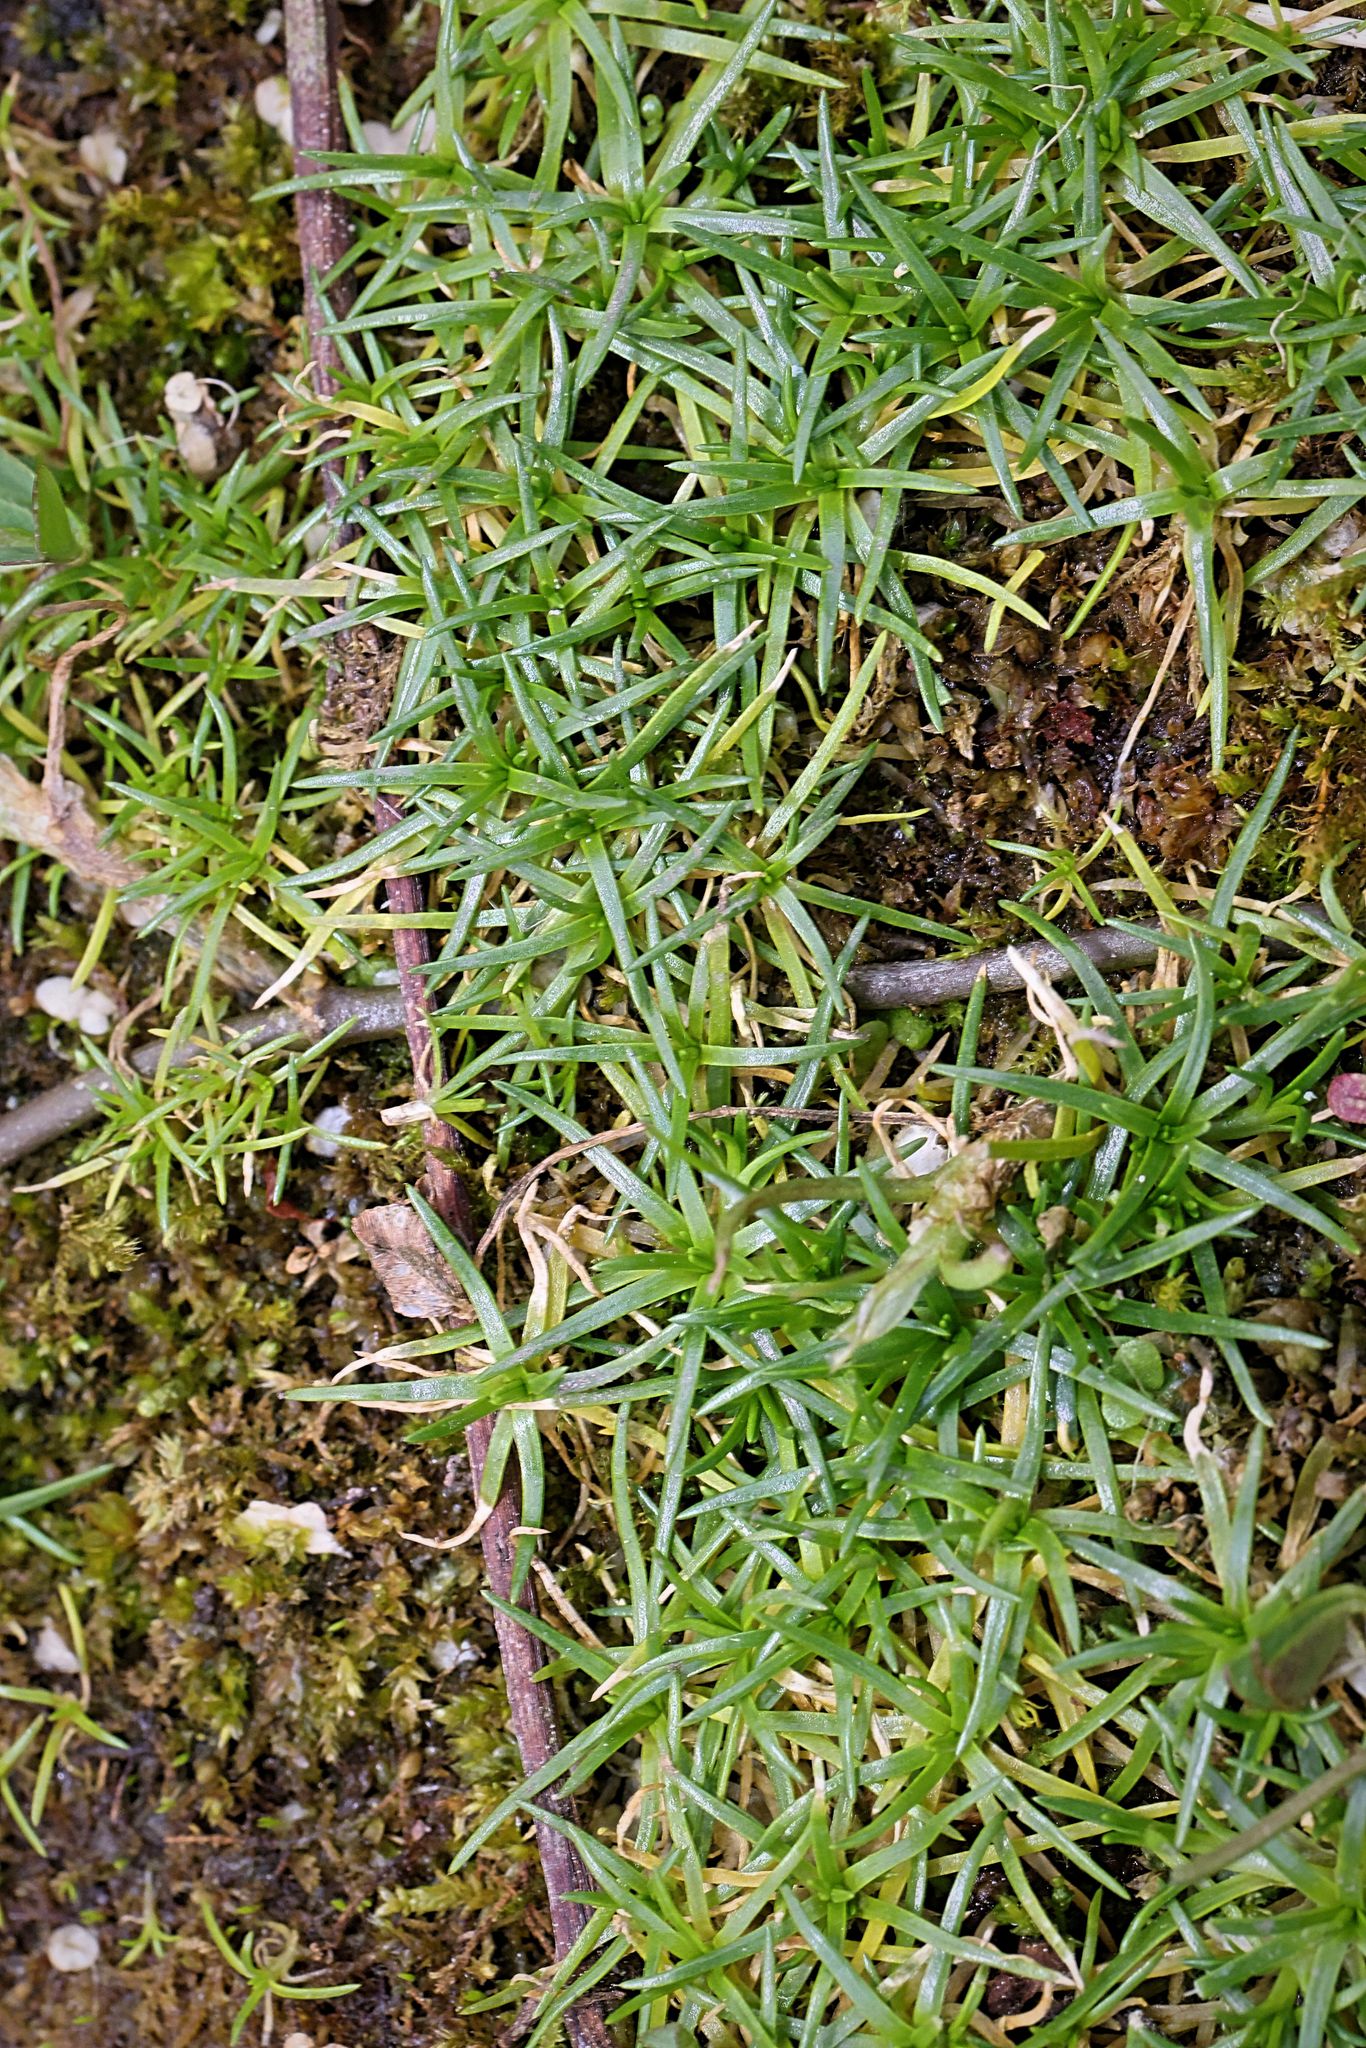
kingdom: Plantae
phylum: Tracheophyta
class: Magnoliopsida
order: Caryophyllales
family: Caryophyllaceae
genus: Sagina
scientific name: Sagina procumbens
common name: Procumbent pearlwort
